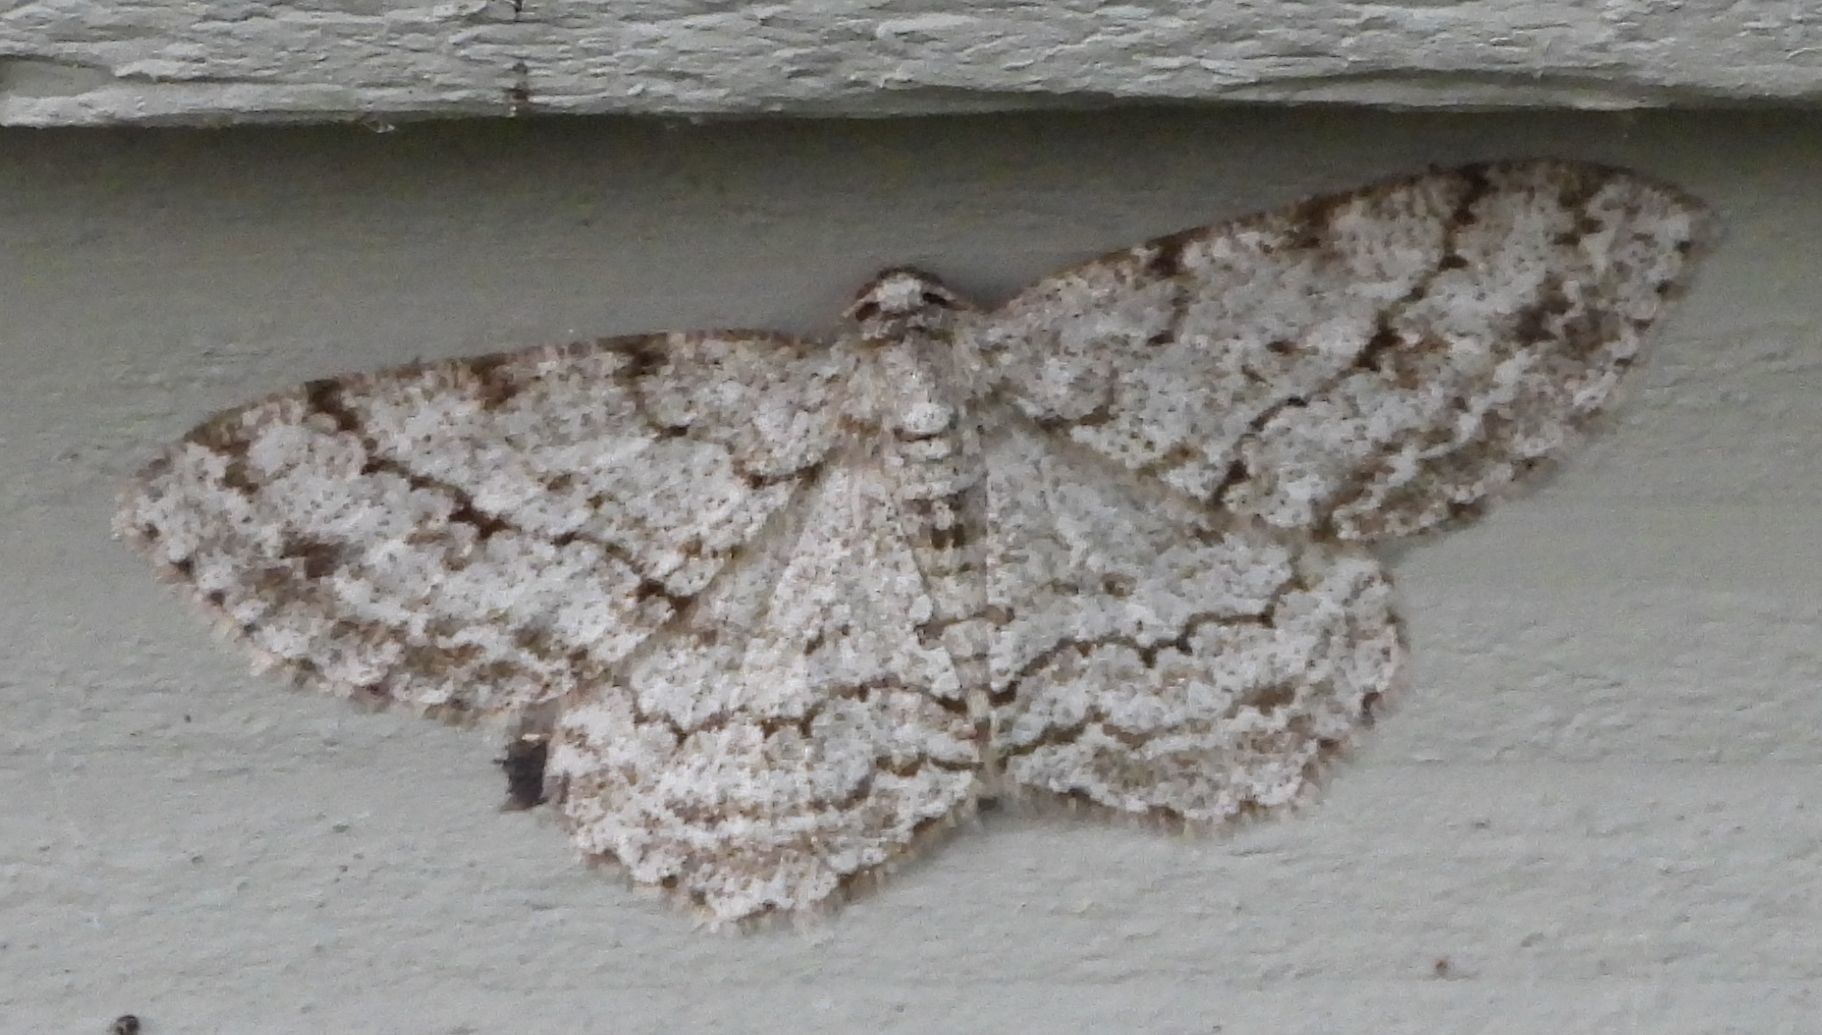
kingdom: Animalia
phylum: Arthropoda
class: Insecta
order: Lepidoptera
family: Geometridae
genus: Ectropis
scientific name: Ectropis crepuscularia
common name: Engrailed
